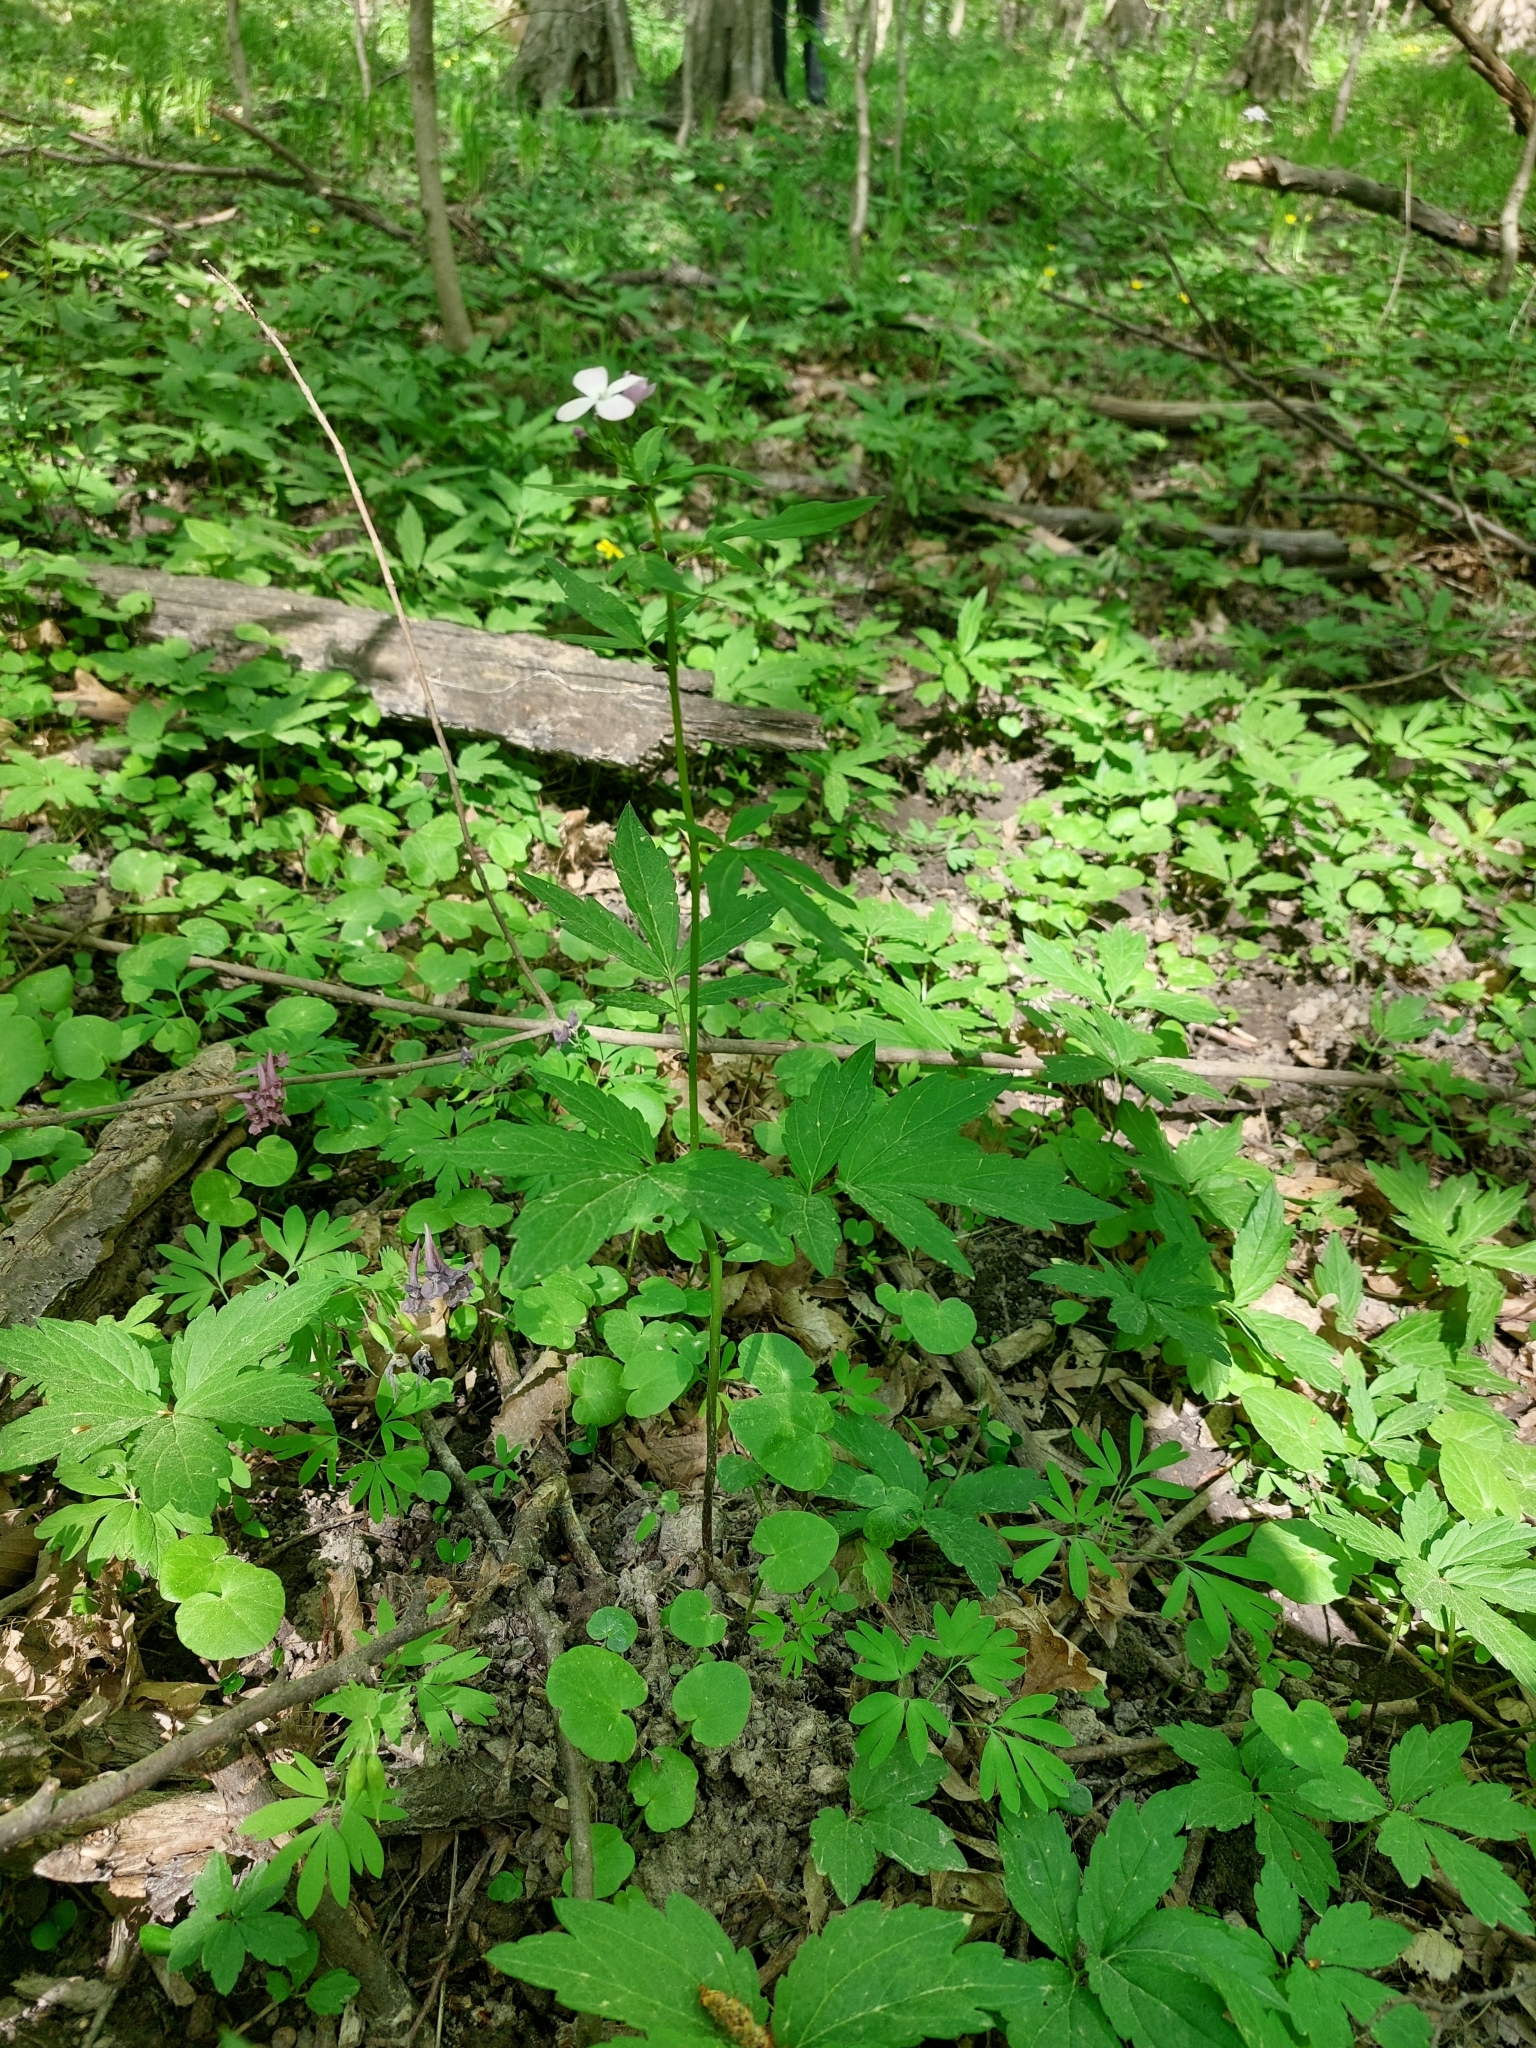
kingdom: Plantae
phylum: Tracheophyta
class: Magnoliopsida
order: Brassicales
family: Brassicaceae
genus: Cardamine
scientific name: Cardamine bulbifera
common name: Coralroot bittercress
